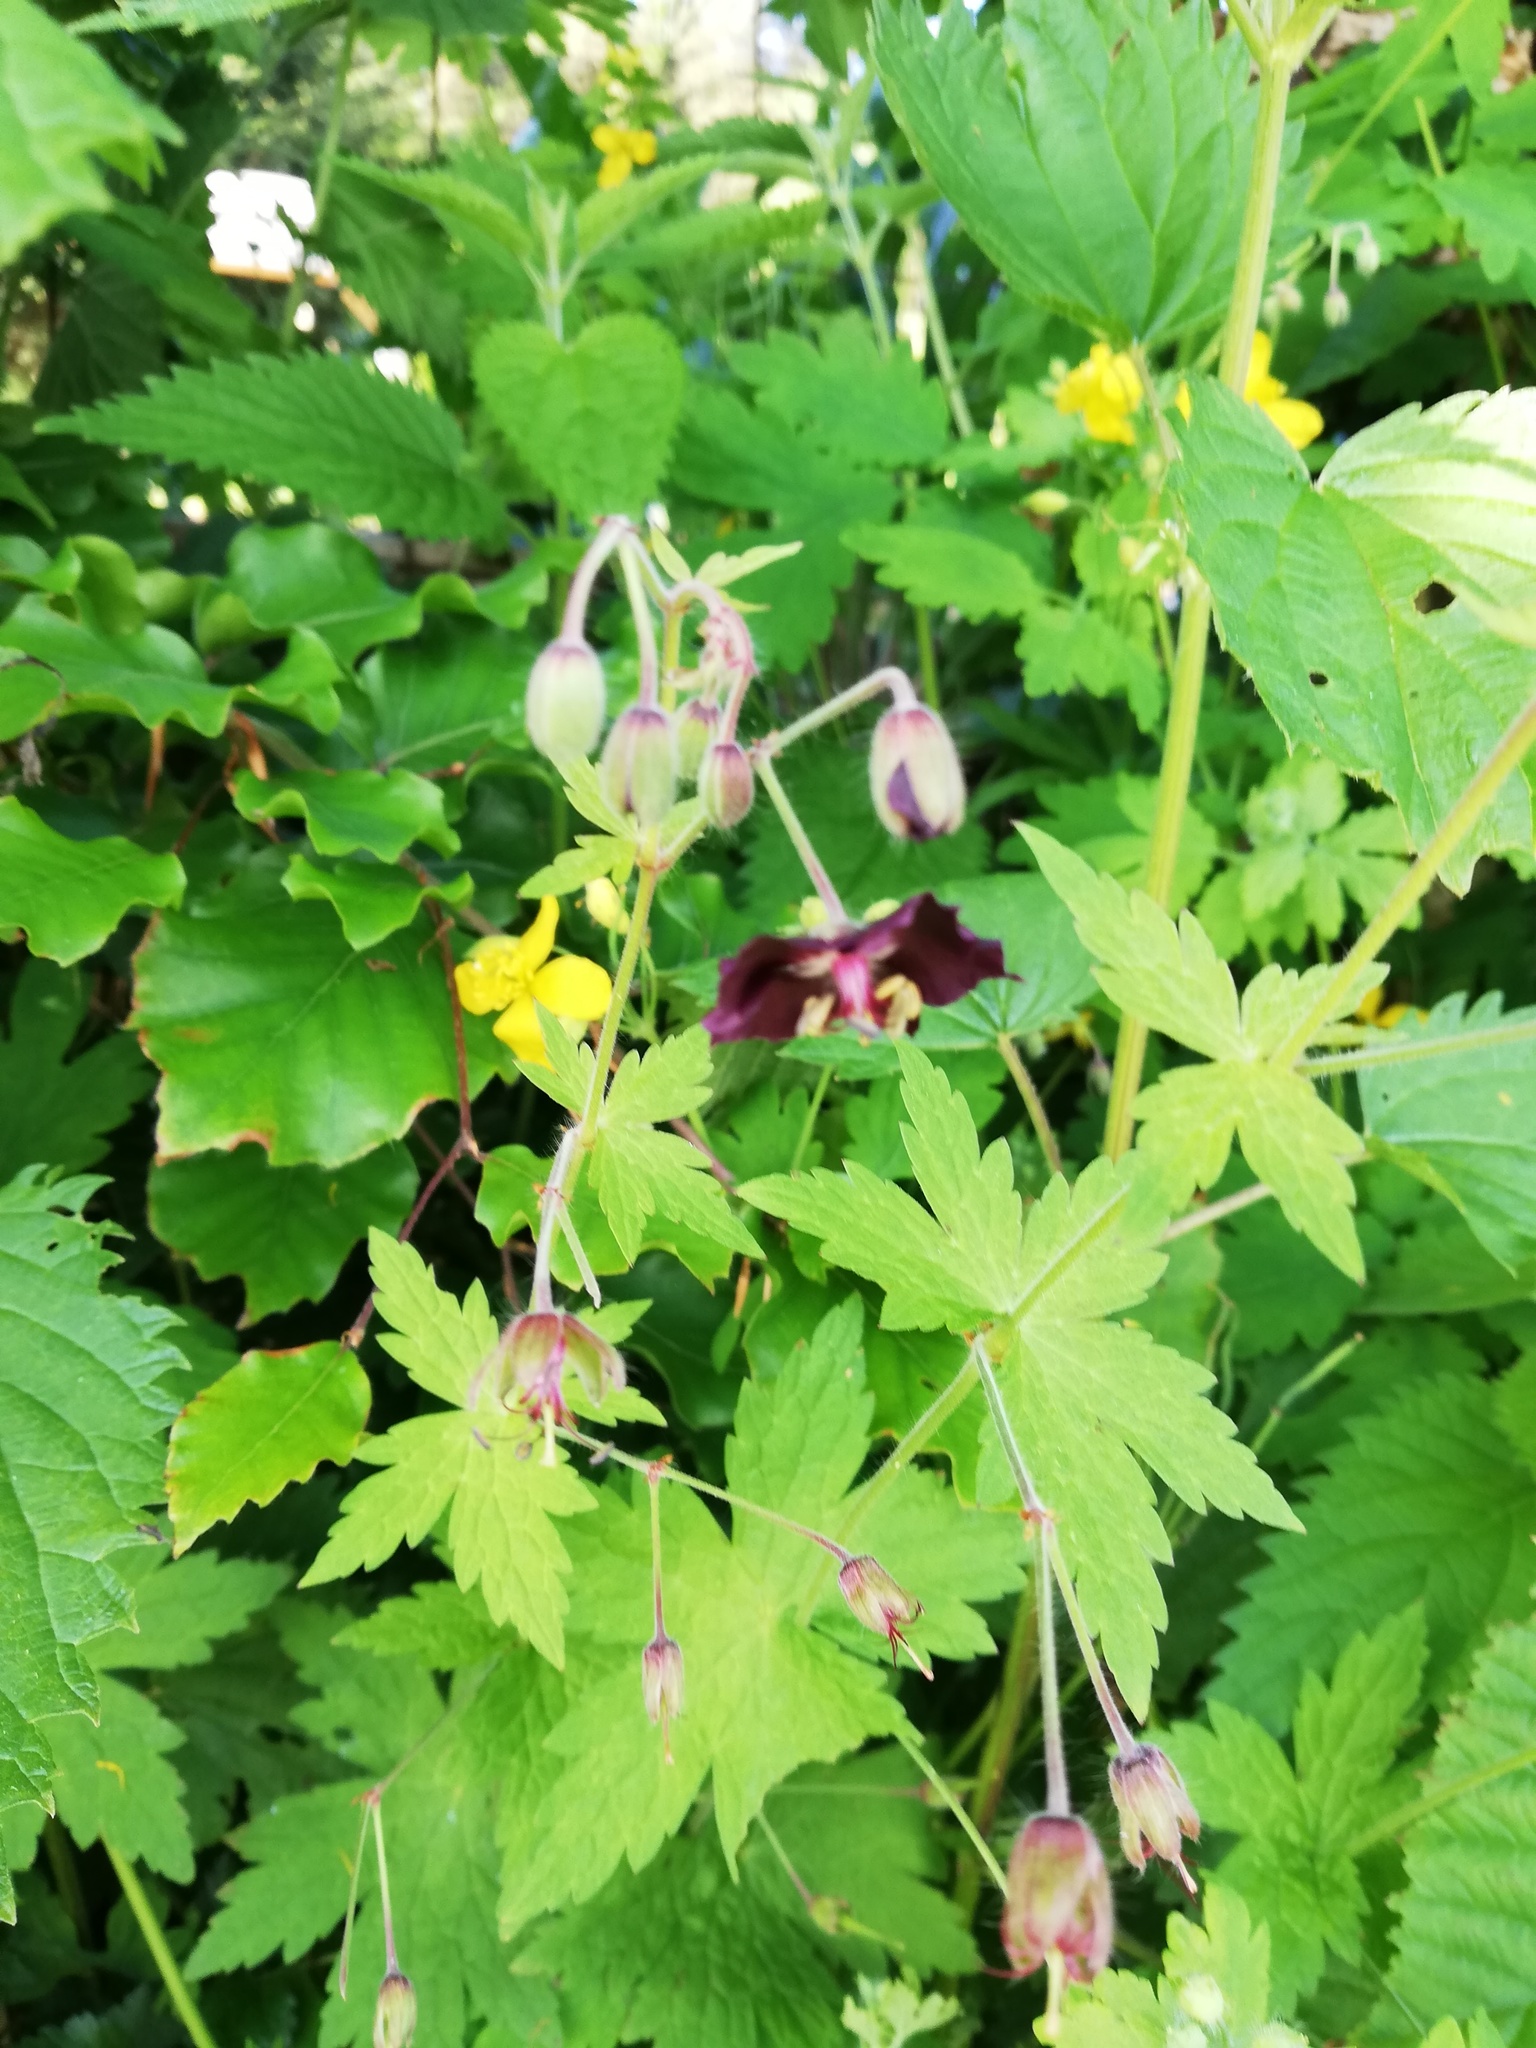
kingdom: Plantae
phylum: Tracheophyta
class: Magnoliopsida
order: Geraniales
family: Geraniaceae
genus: Geranium
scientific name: Geranium phaeum
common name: Dusky crane's-bill
